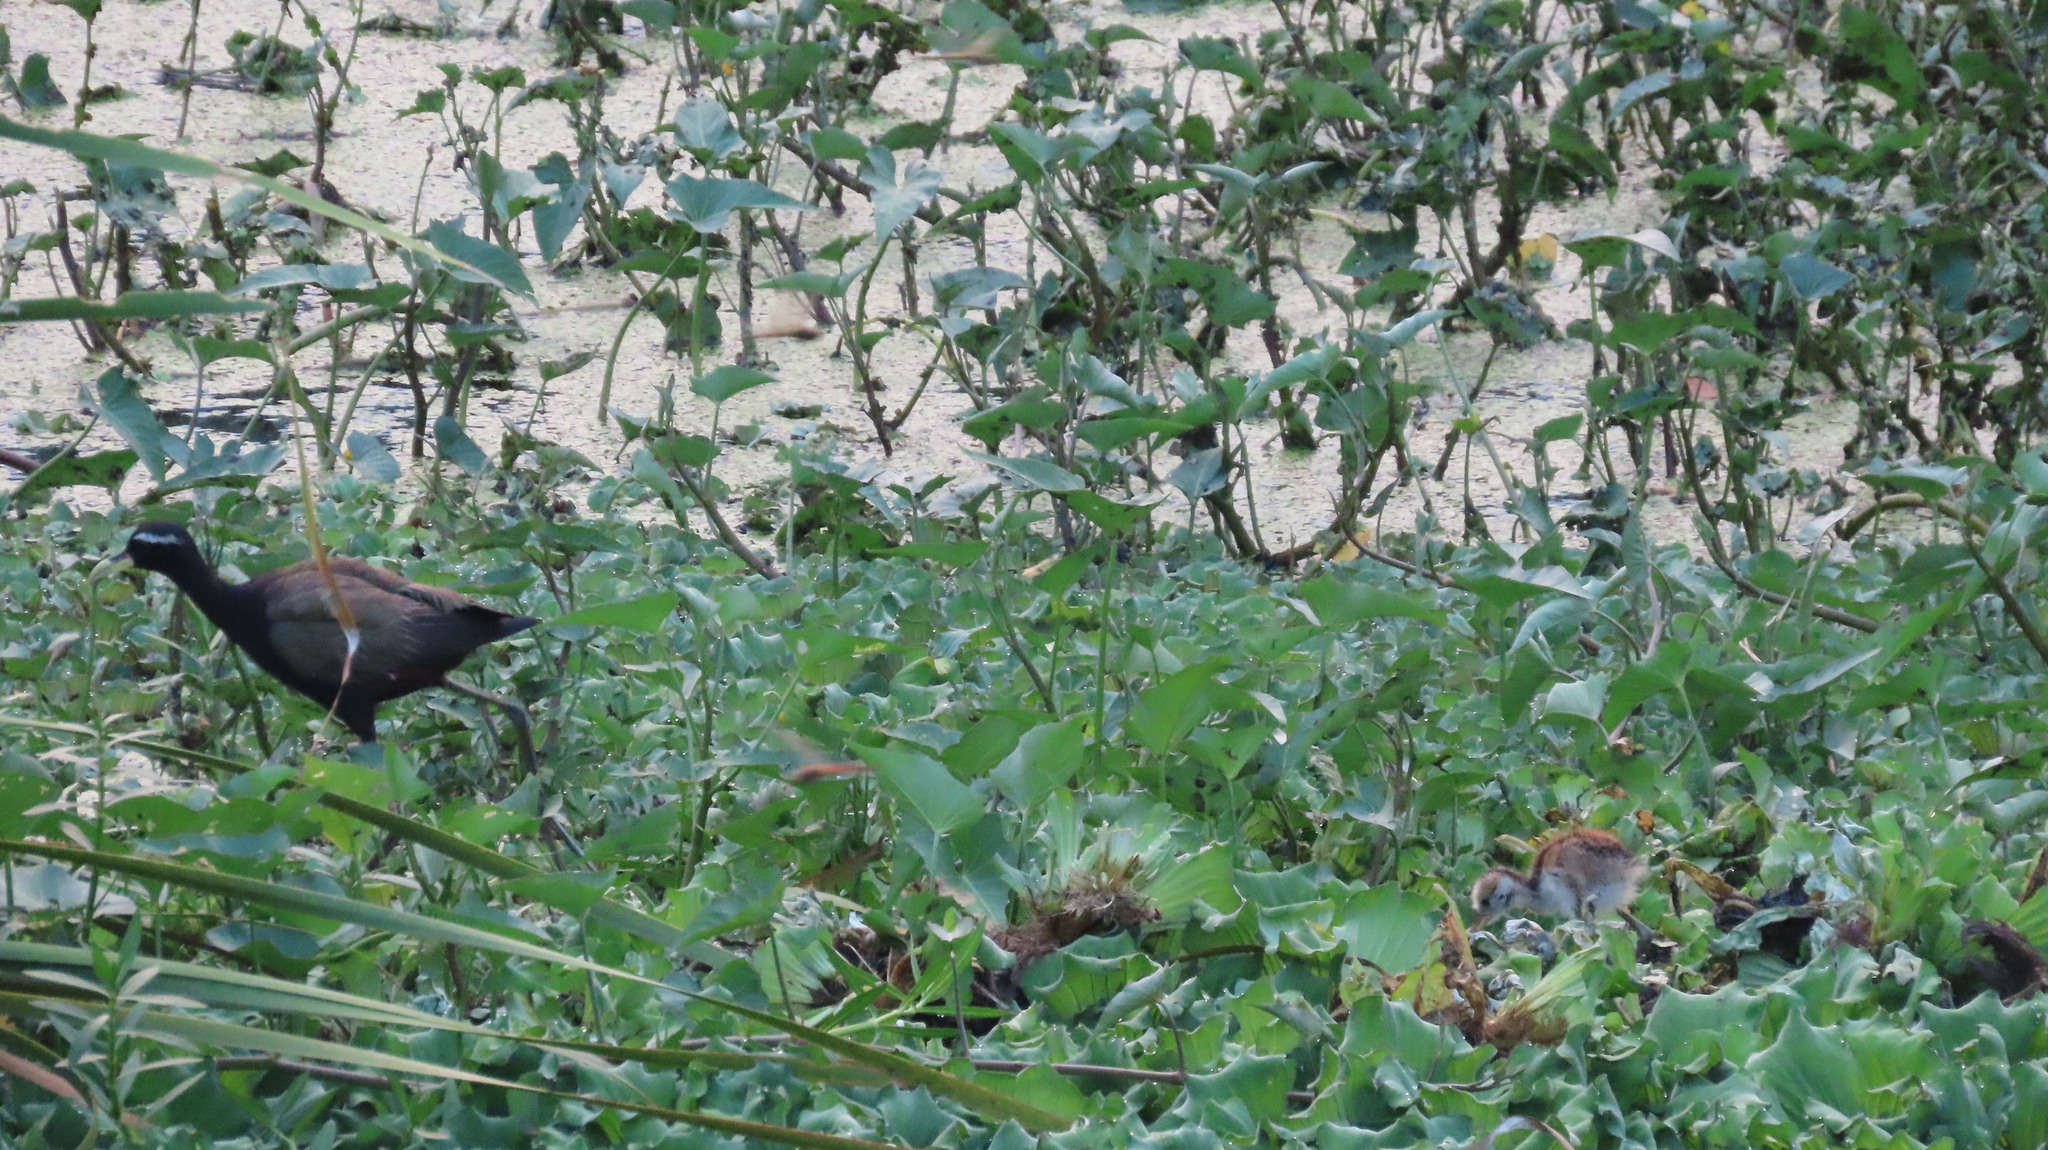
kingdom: Animalia
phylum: Chordata
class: Aves
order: Charadriiformes
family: Jacanidae
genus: Metopidius
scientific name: Metopidius indicus
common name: Bronze-winged jacana
